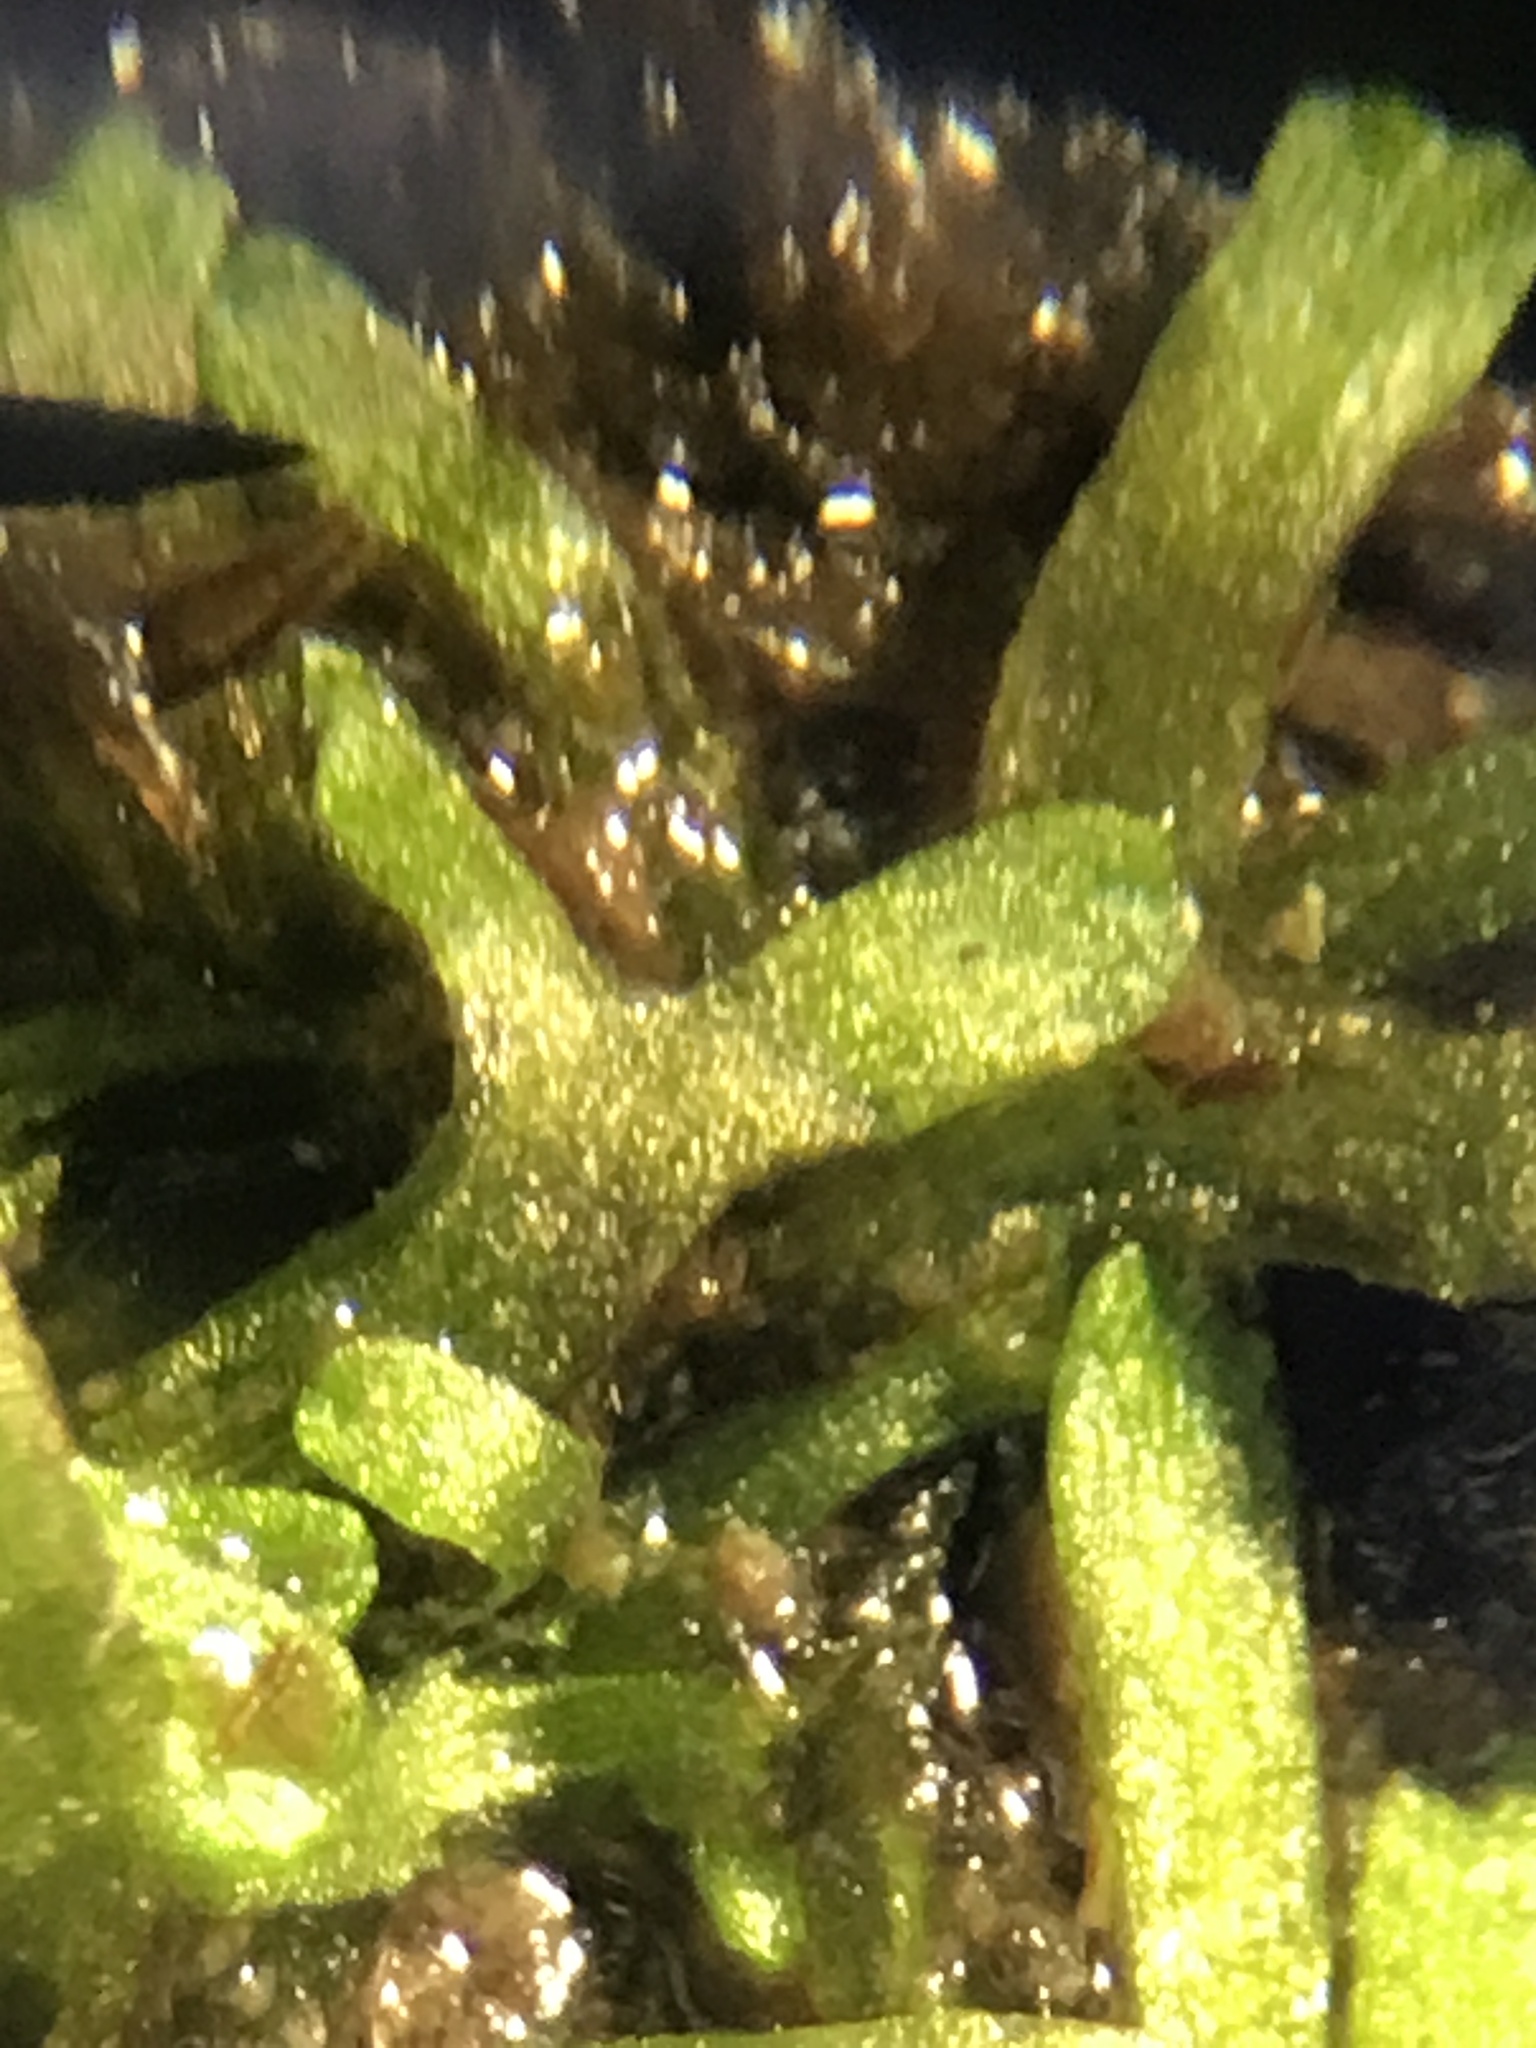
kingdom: Plantae
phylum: Marchantiophyta
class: Marchantiopsida
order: Marchantiales
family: Ricciaceae
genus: Riccia
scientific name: Riccia fluitans
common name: Floating crystalwort
